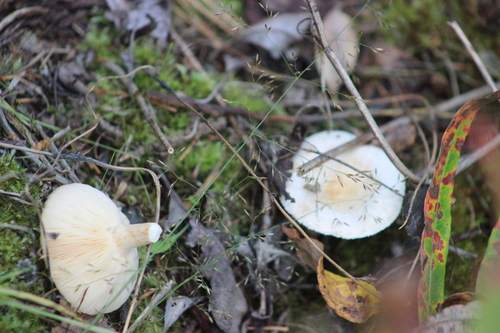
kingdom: Fungi
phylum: Basidiomycota
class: Agaricomycetes
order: Russulales
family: Russulaceae
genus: Lactarius
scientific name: Lactarius
